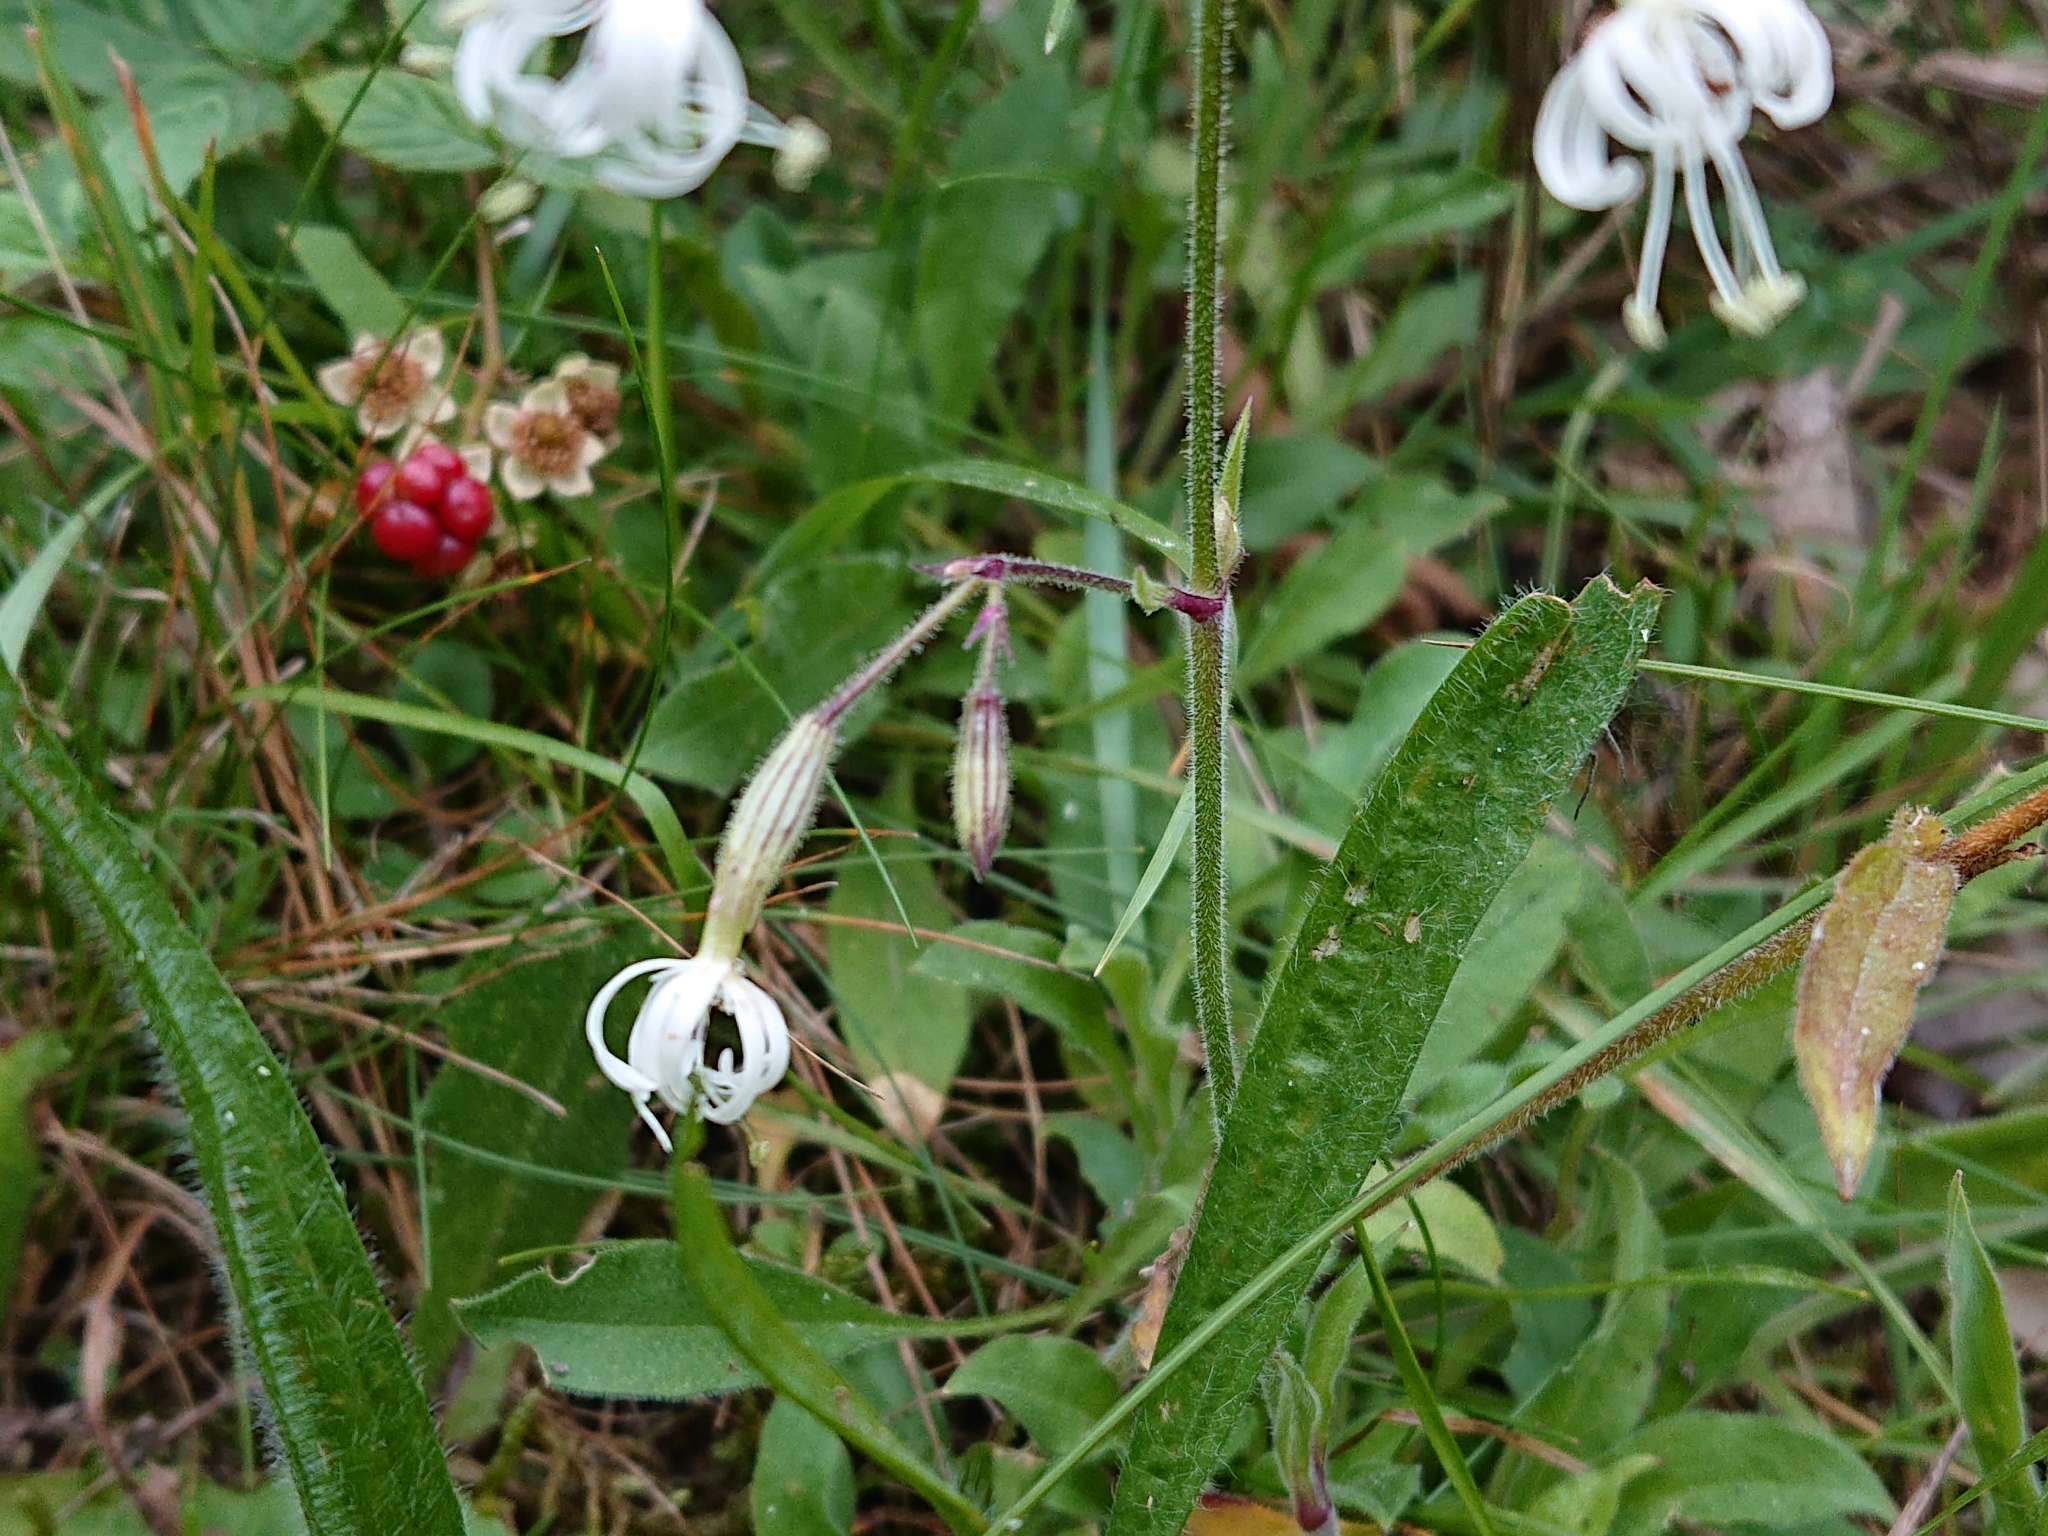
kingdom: Plantae
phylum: Tracheophyta
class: Magnoliopsida
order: Caryophyllales
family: Caryophyllaceae
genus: Silene
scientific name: Silene nutans
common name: Nottingham catchfly
